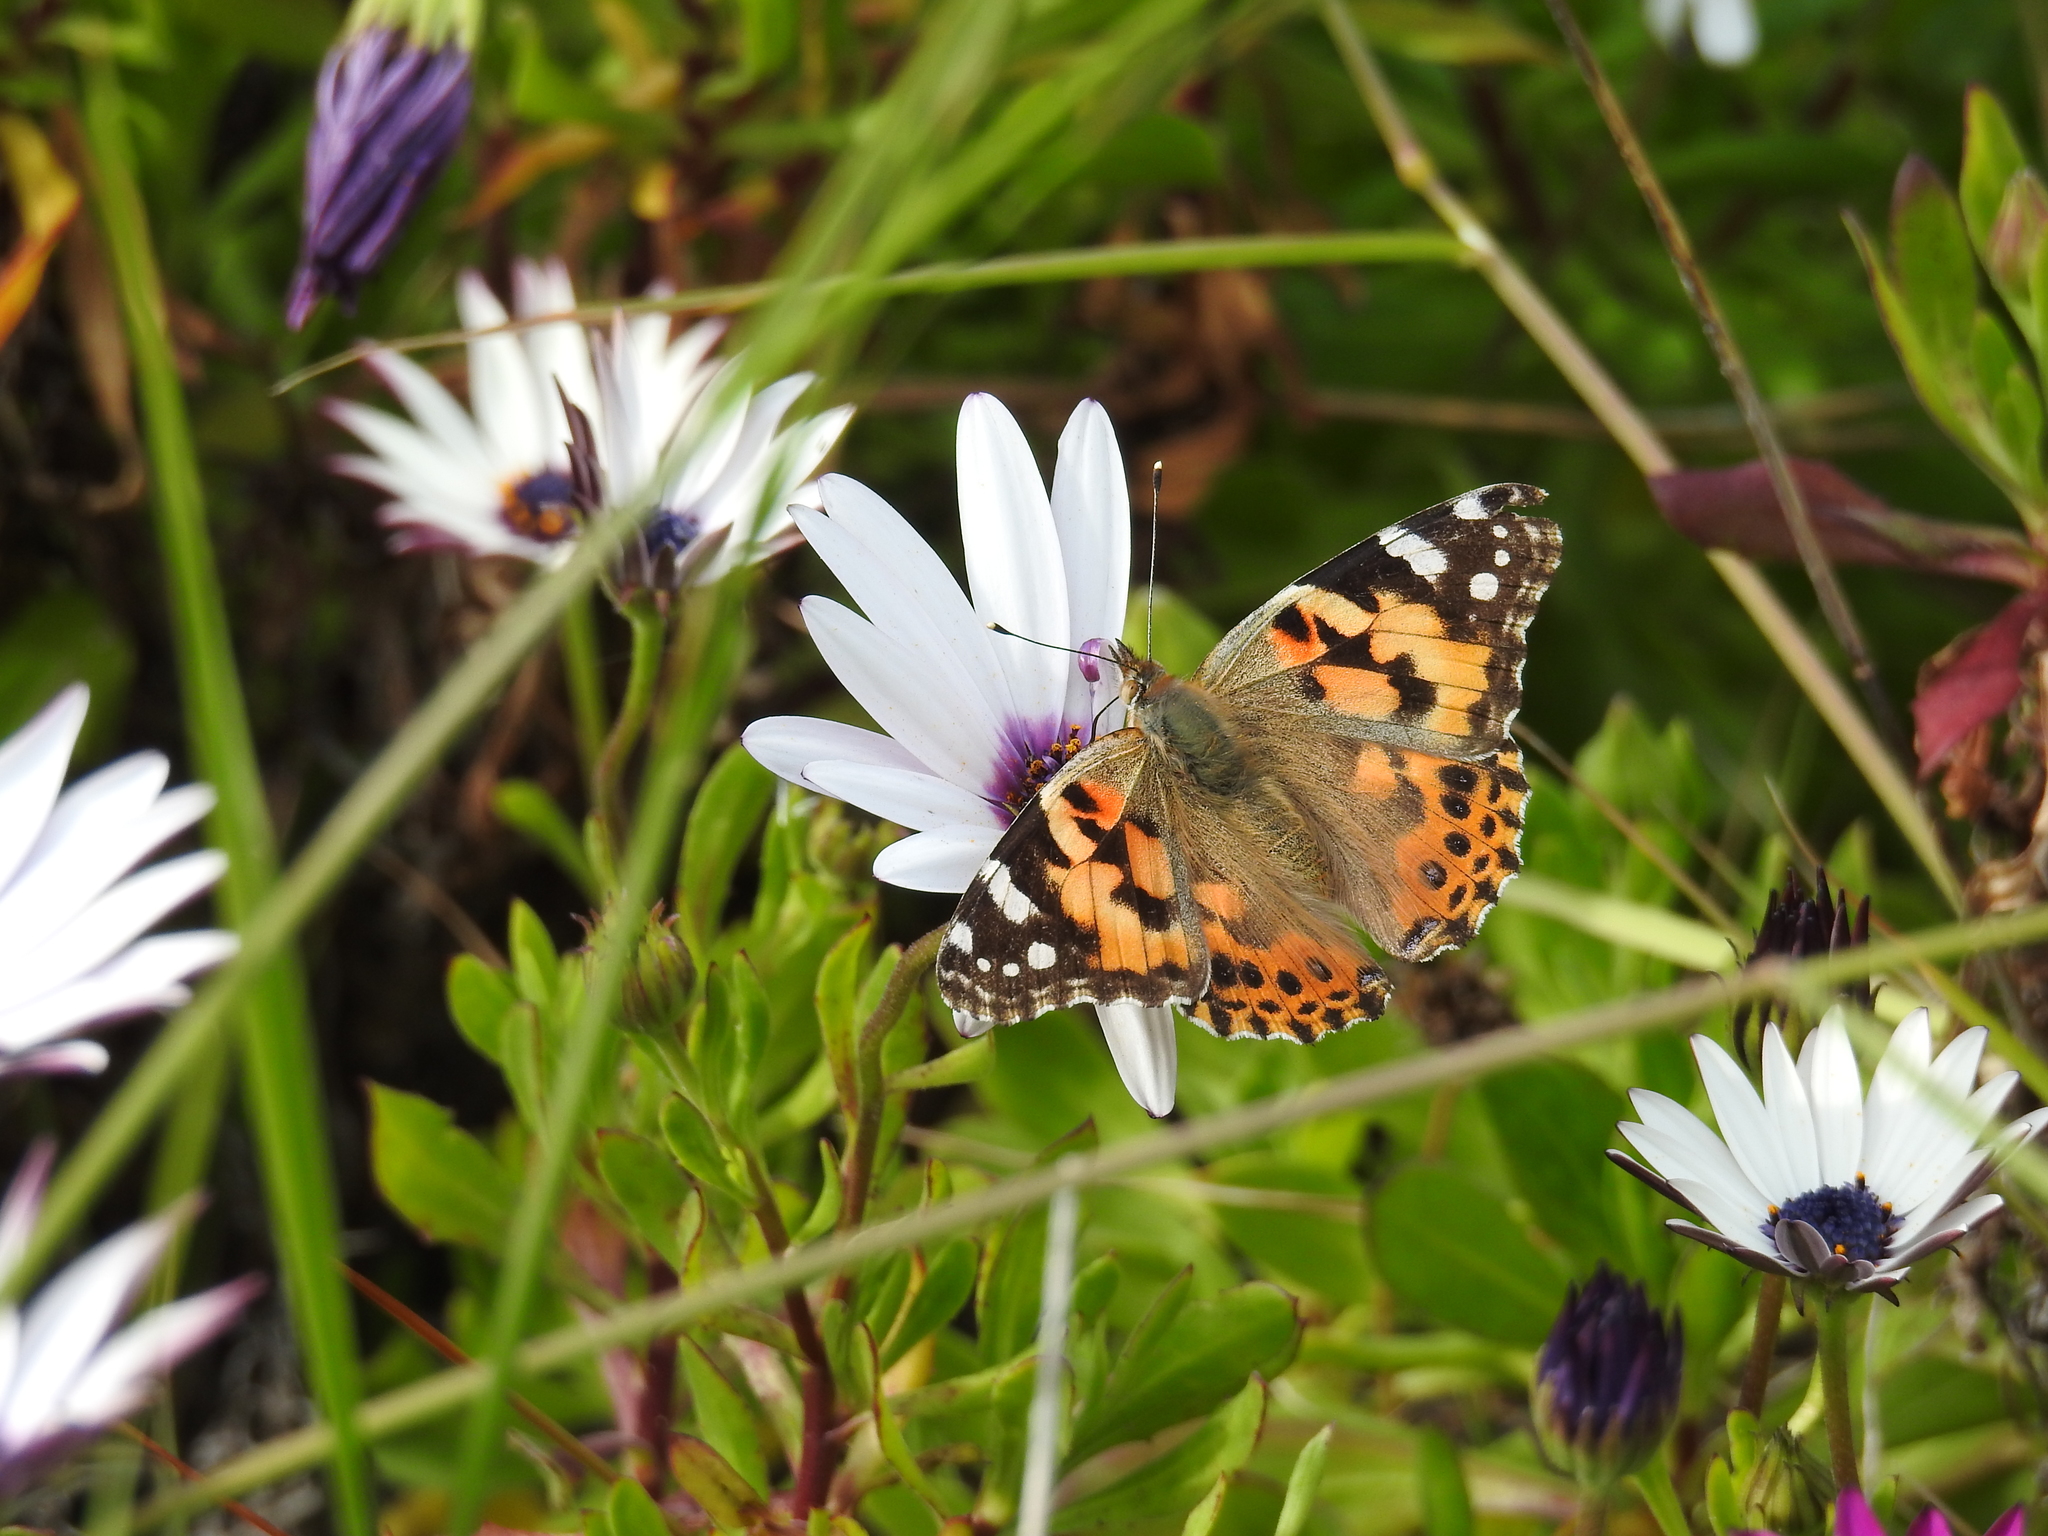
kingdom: Animalia
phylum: Arthropoda
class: Insecta
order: Lepidoptera
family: Nymphalidae
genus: Vanessa
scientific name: Vanessa cardui
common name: Painted lady
